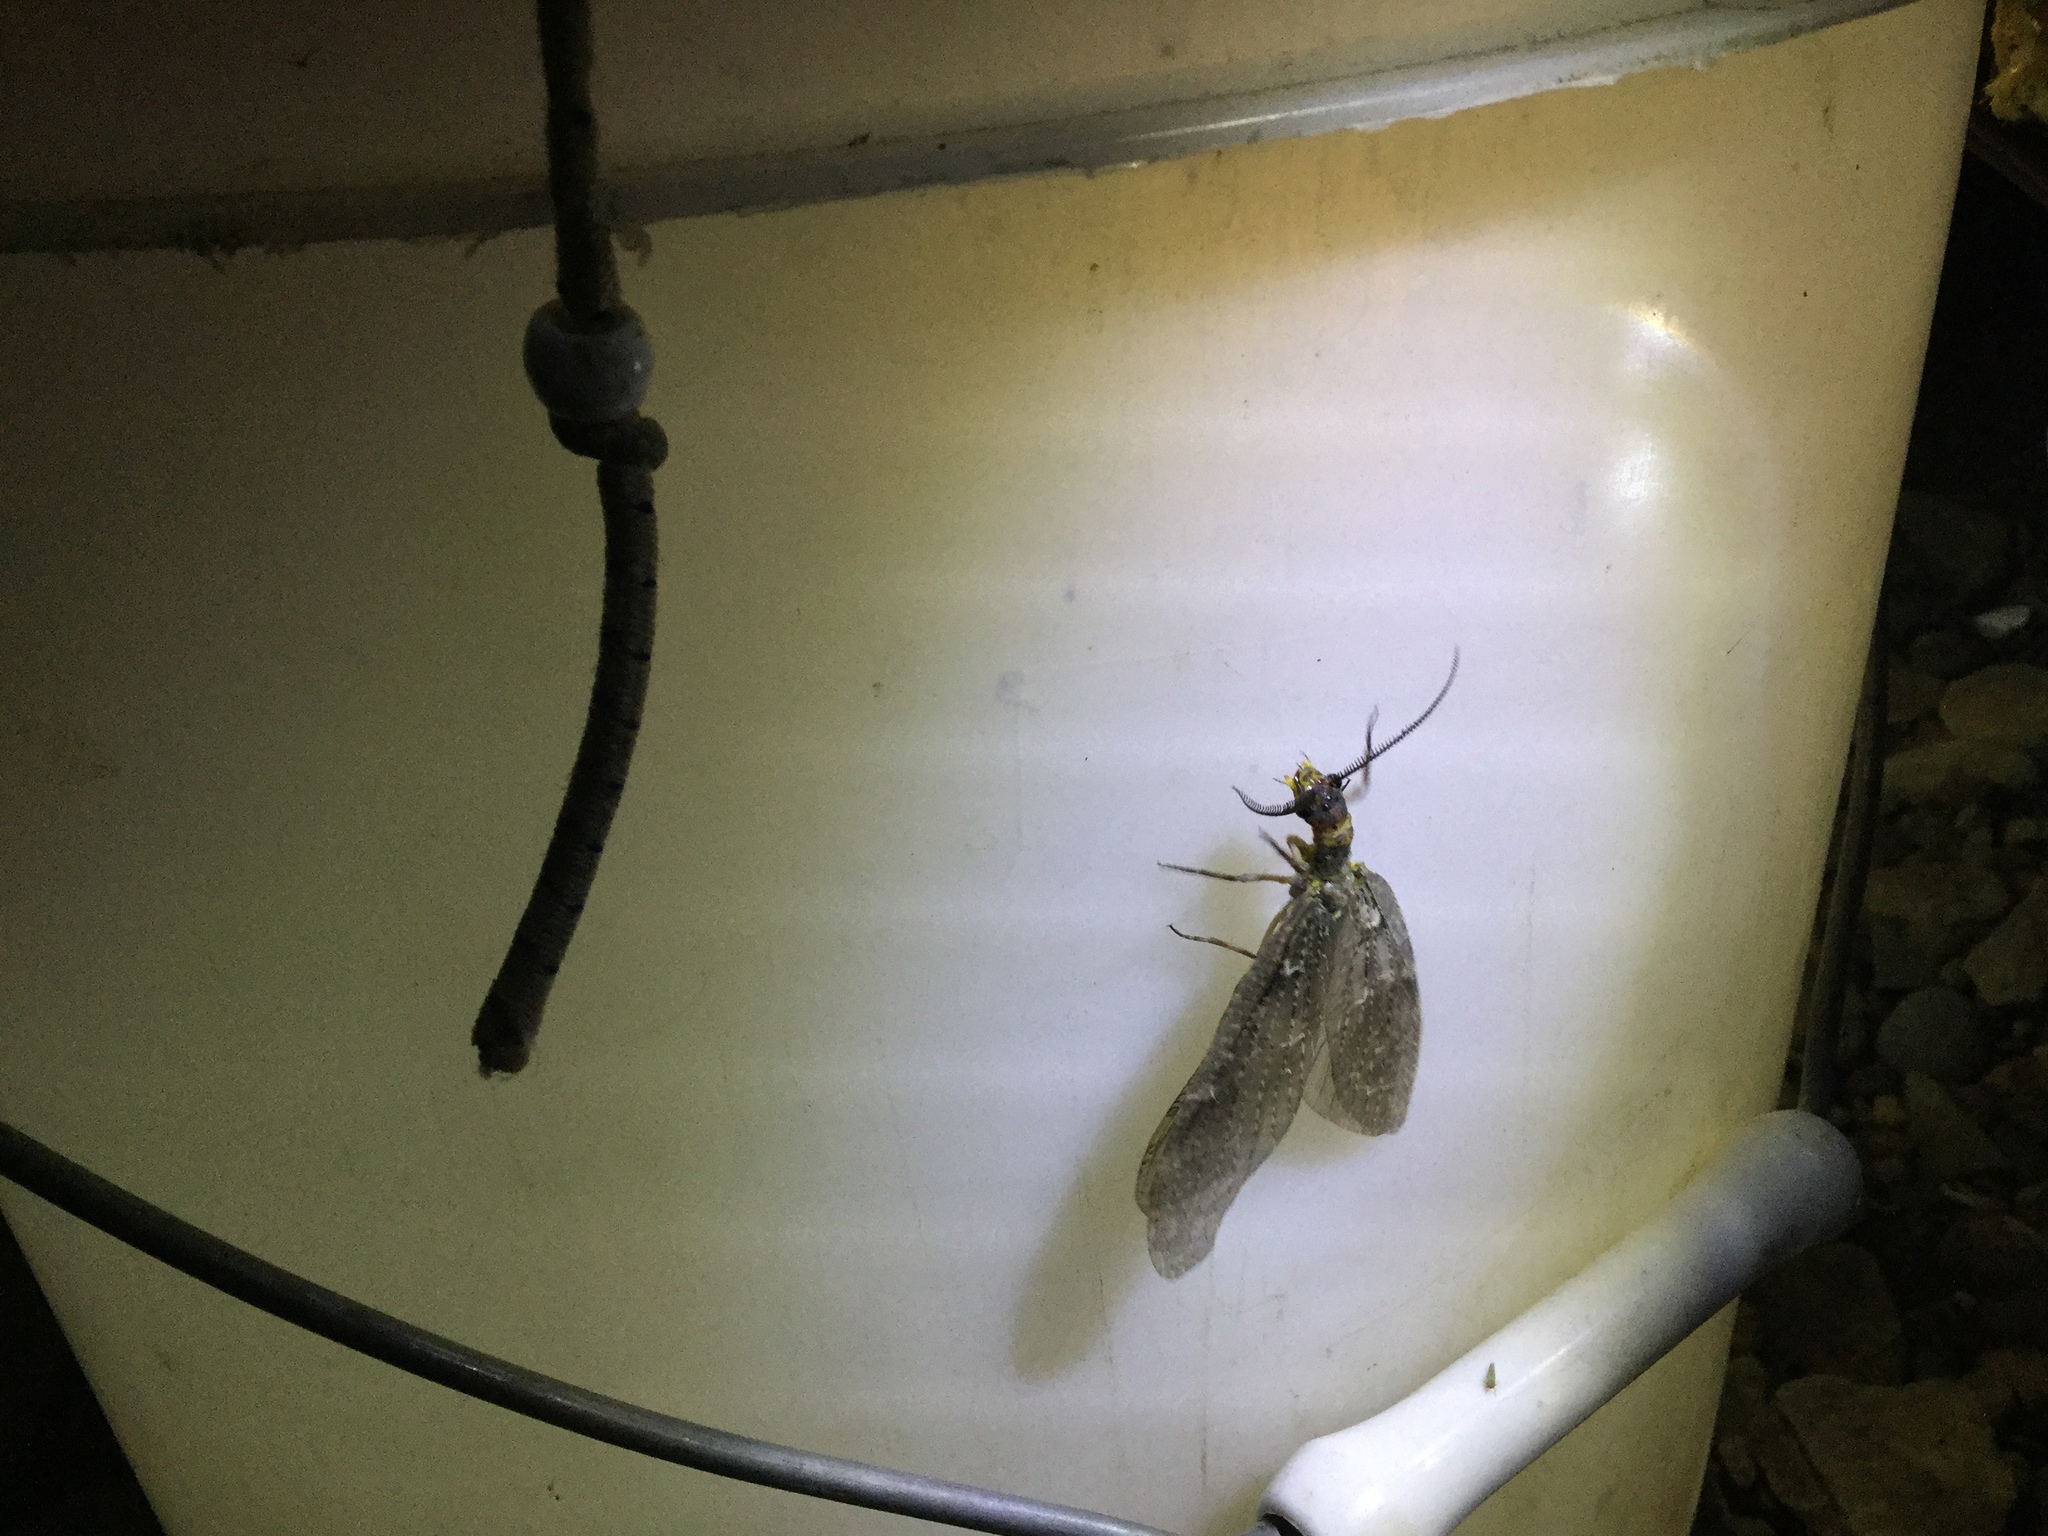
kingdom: Animalia
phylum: Arthropoda
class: Insecta
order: Megaloptera
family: Corydalidae
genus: Chauliodes
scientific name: Chauliodes pectinicornis
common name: Summer fishfly
